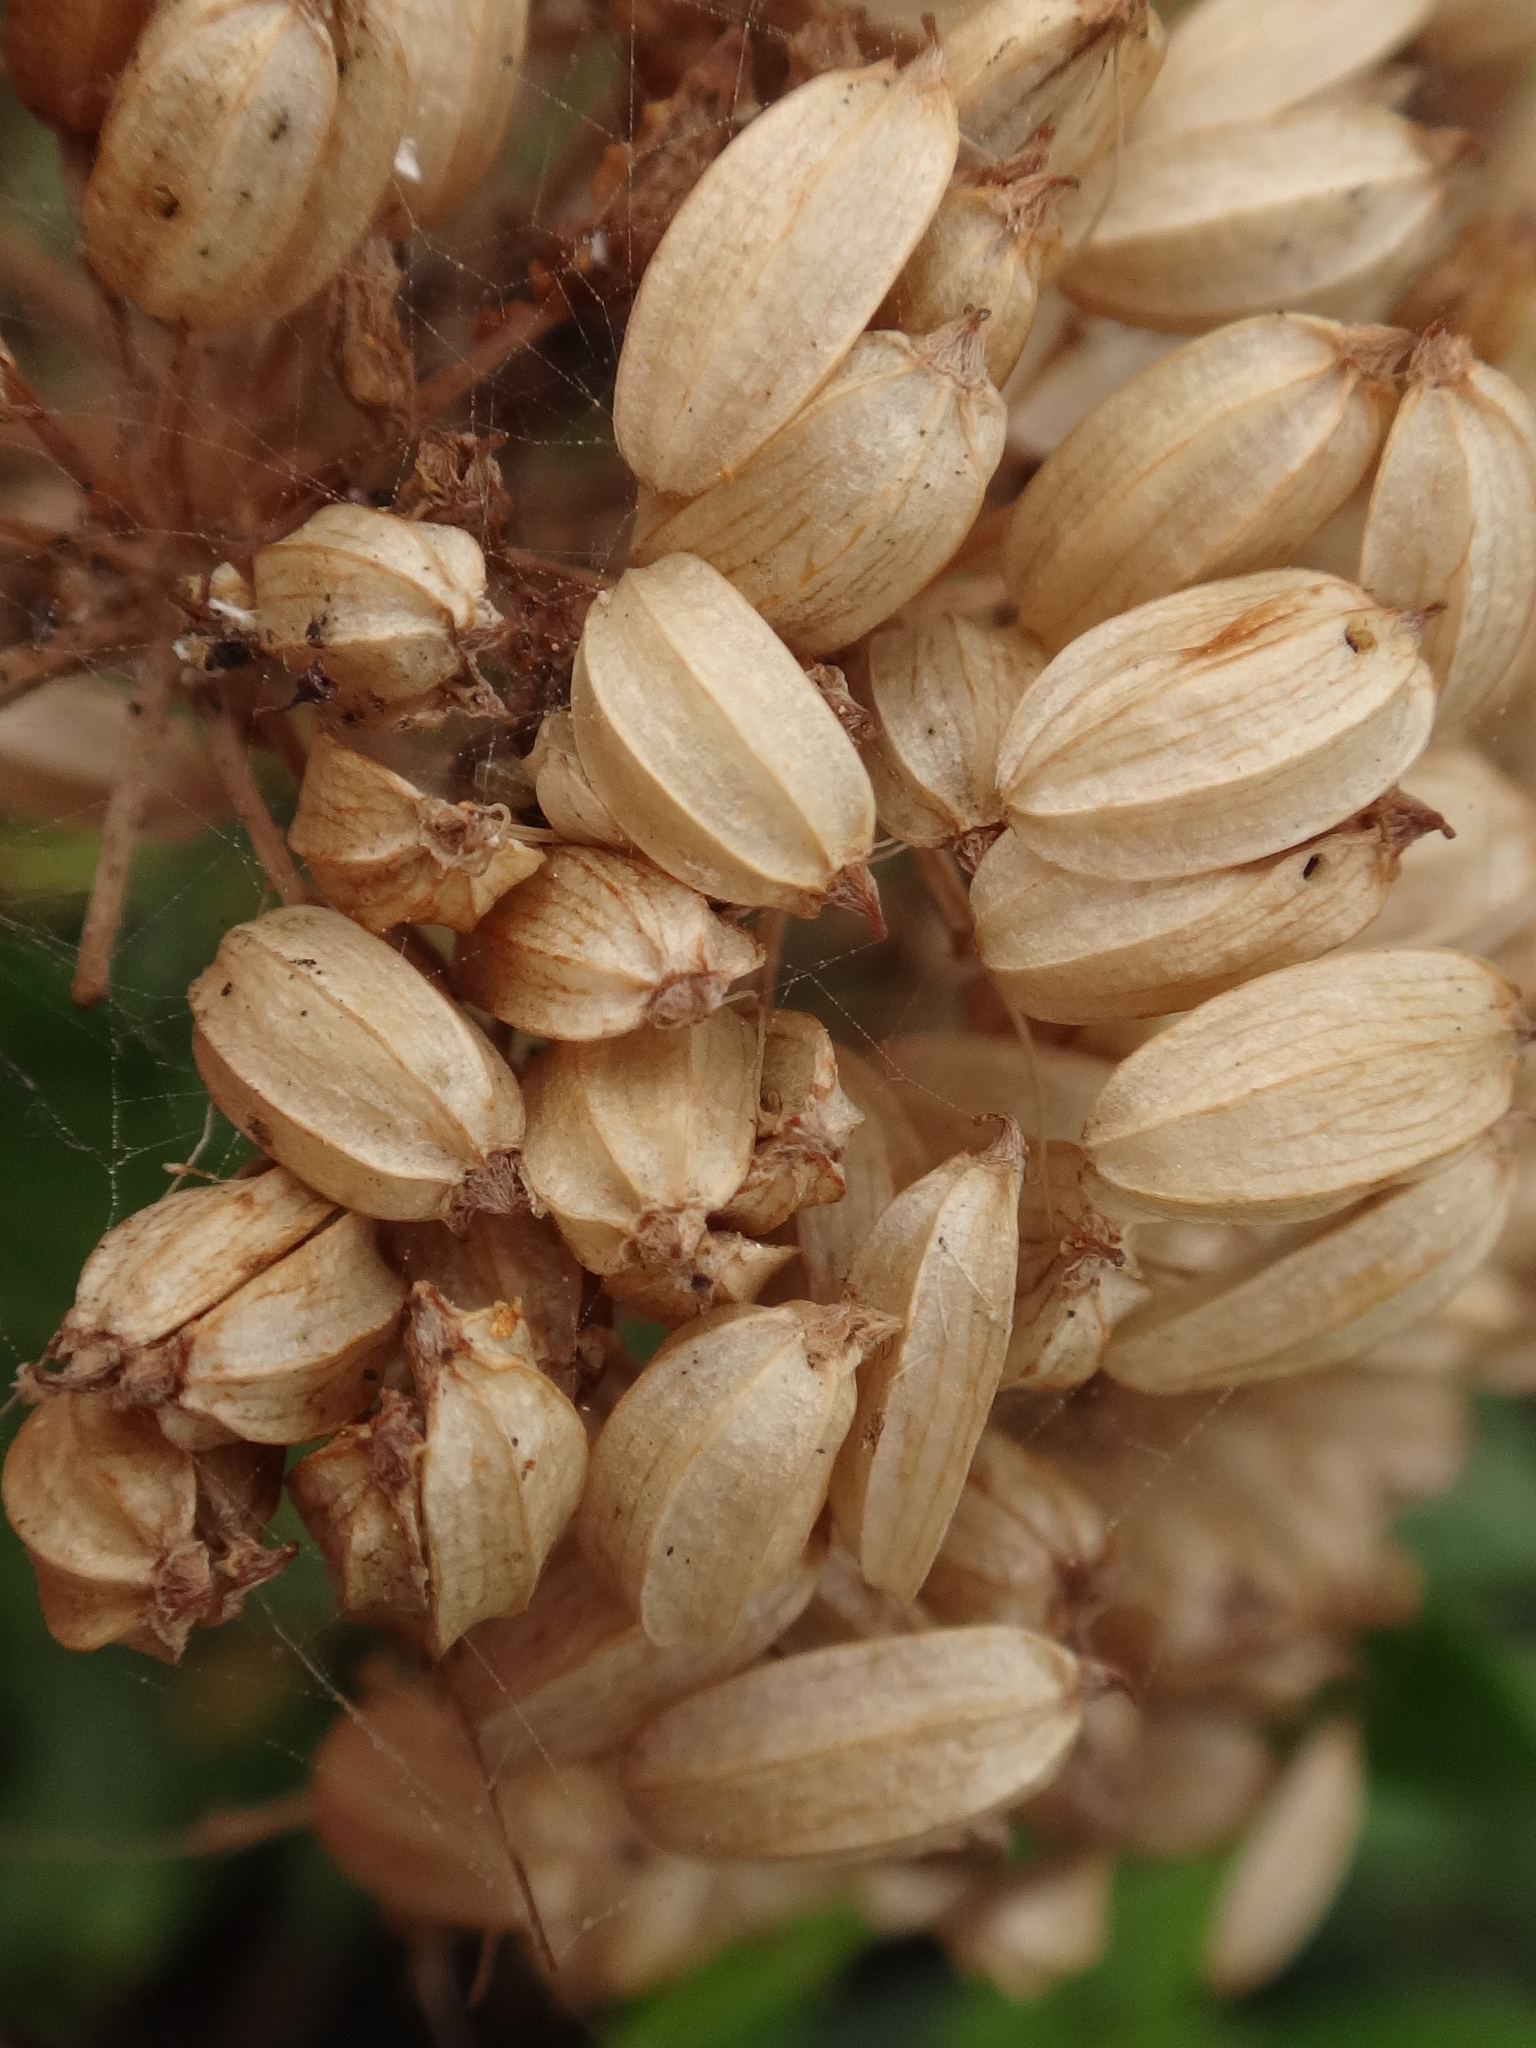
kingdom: Plantae
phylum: Tracheophyta
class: Magnoliopsida
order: Apiales
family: Apiaceae
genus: Crithmum
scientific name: Crithmum maritimum
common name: Rock samphire
